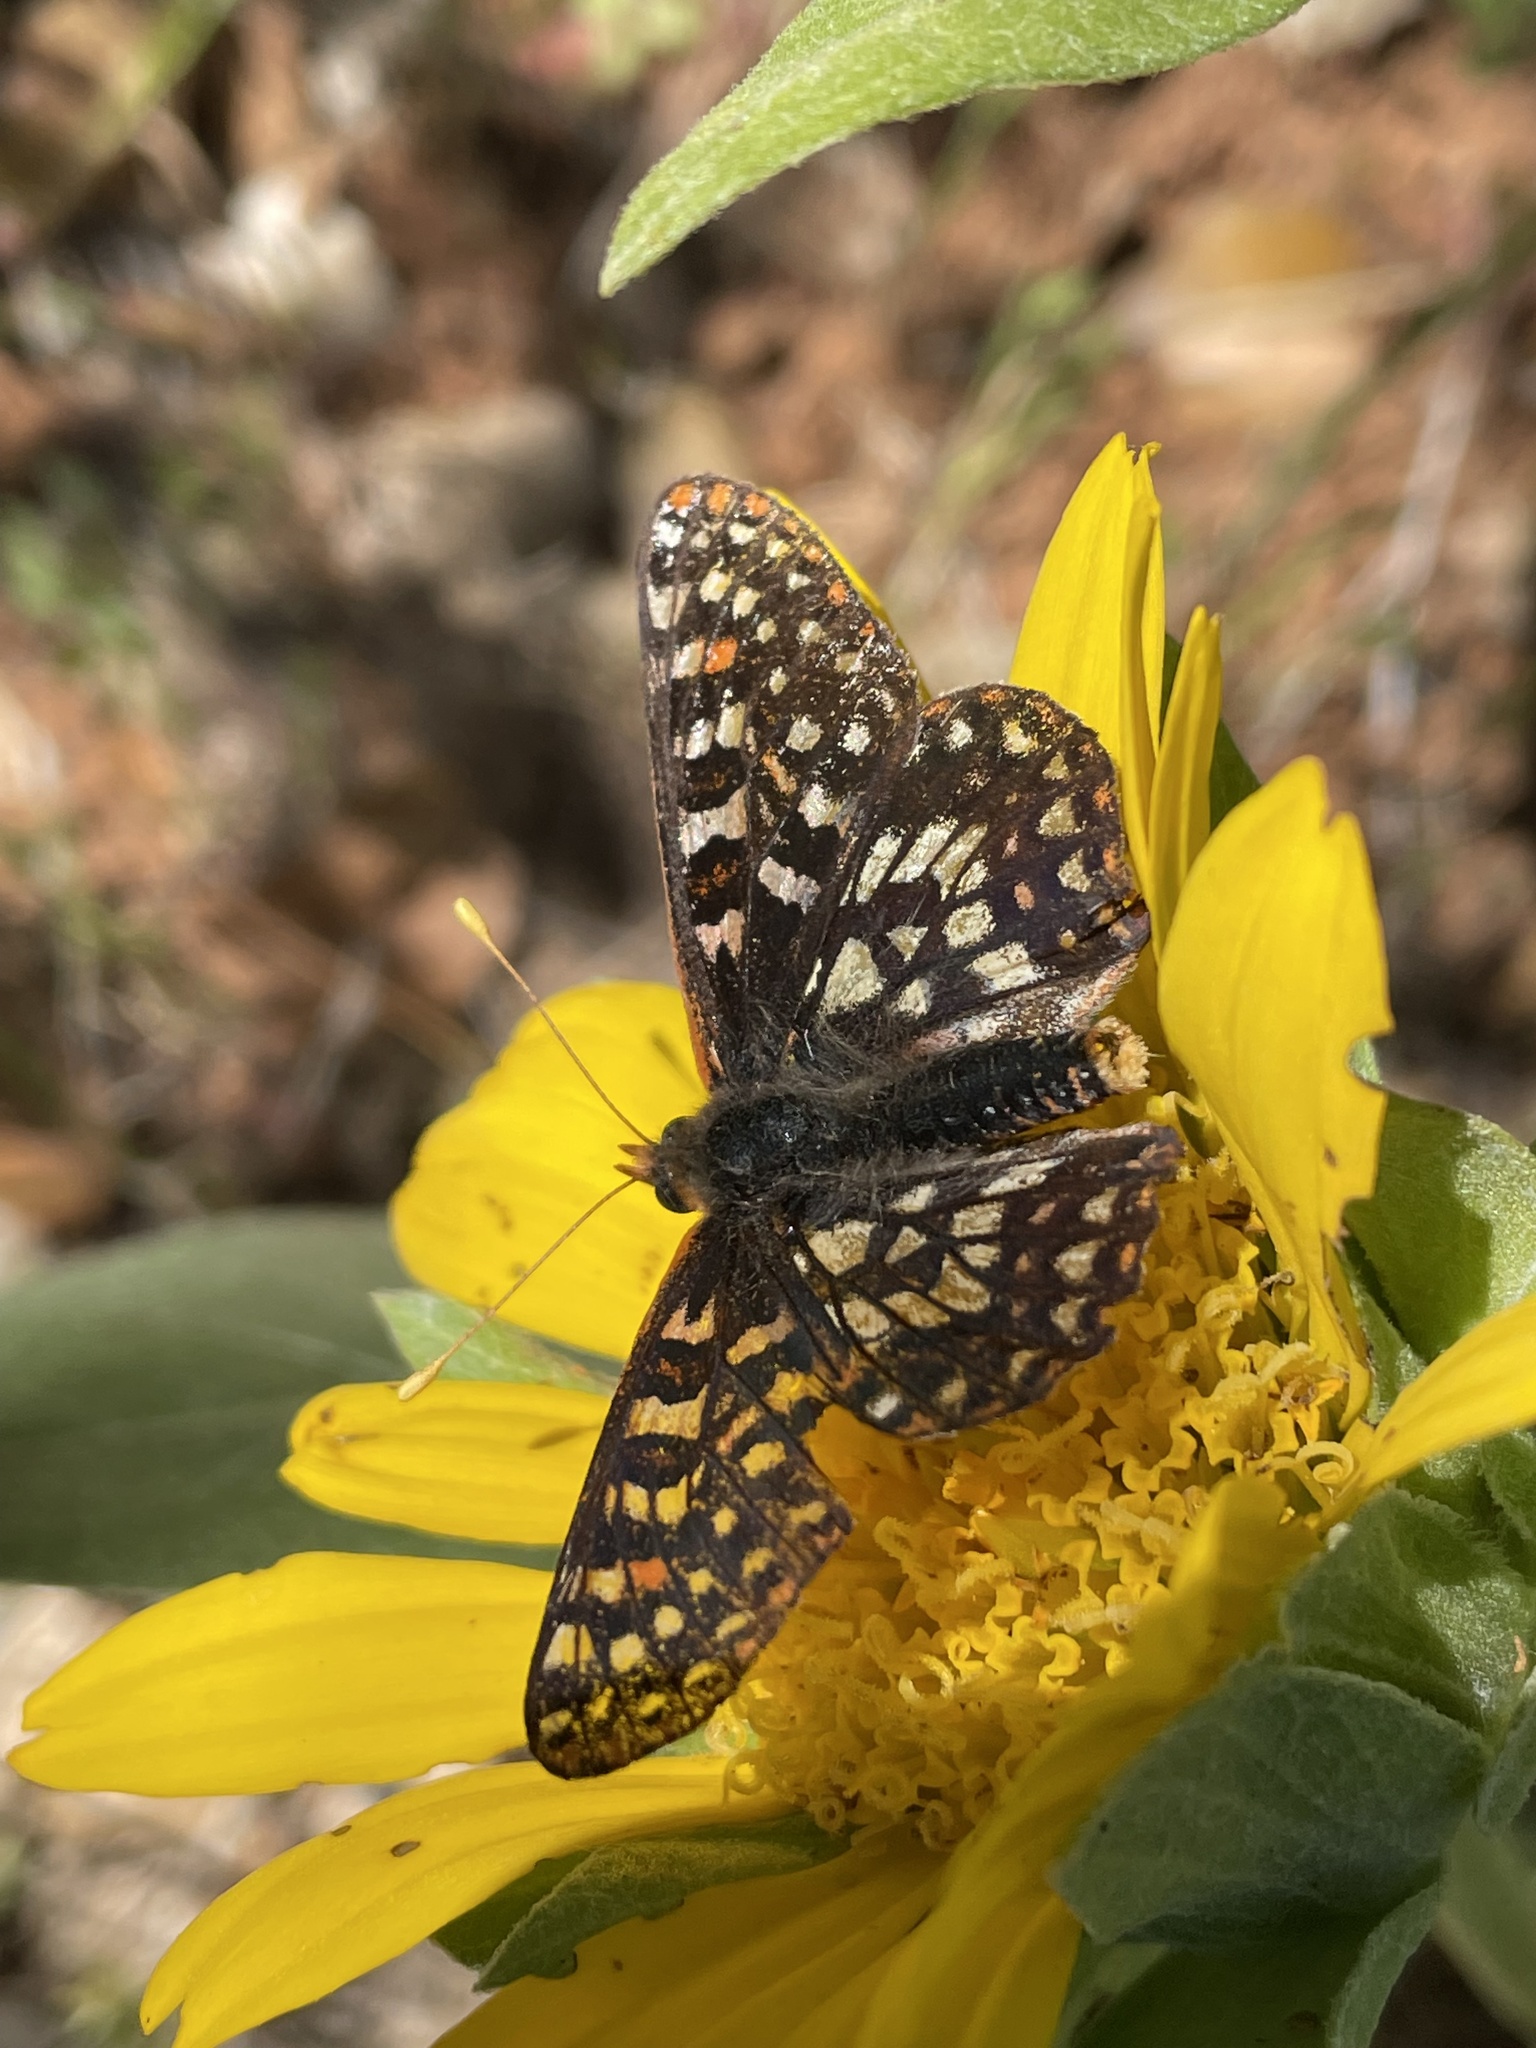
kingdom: Animalia
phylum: Arthropoda
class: Insecta
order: Lepidoptera
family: Nymphalidae
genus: Occidryas
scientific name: Occidryas chalcedona
